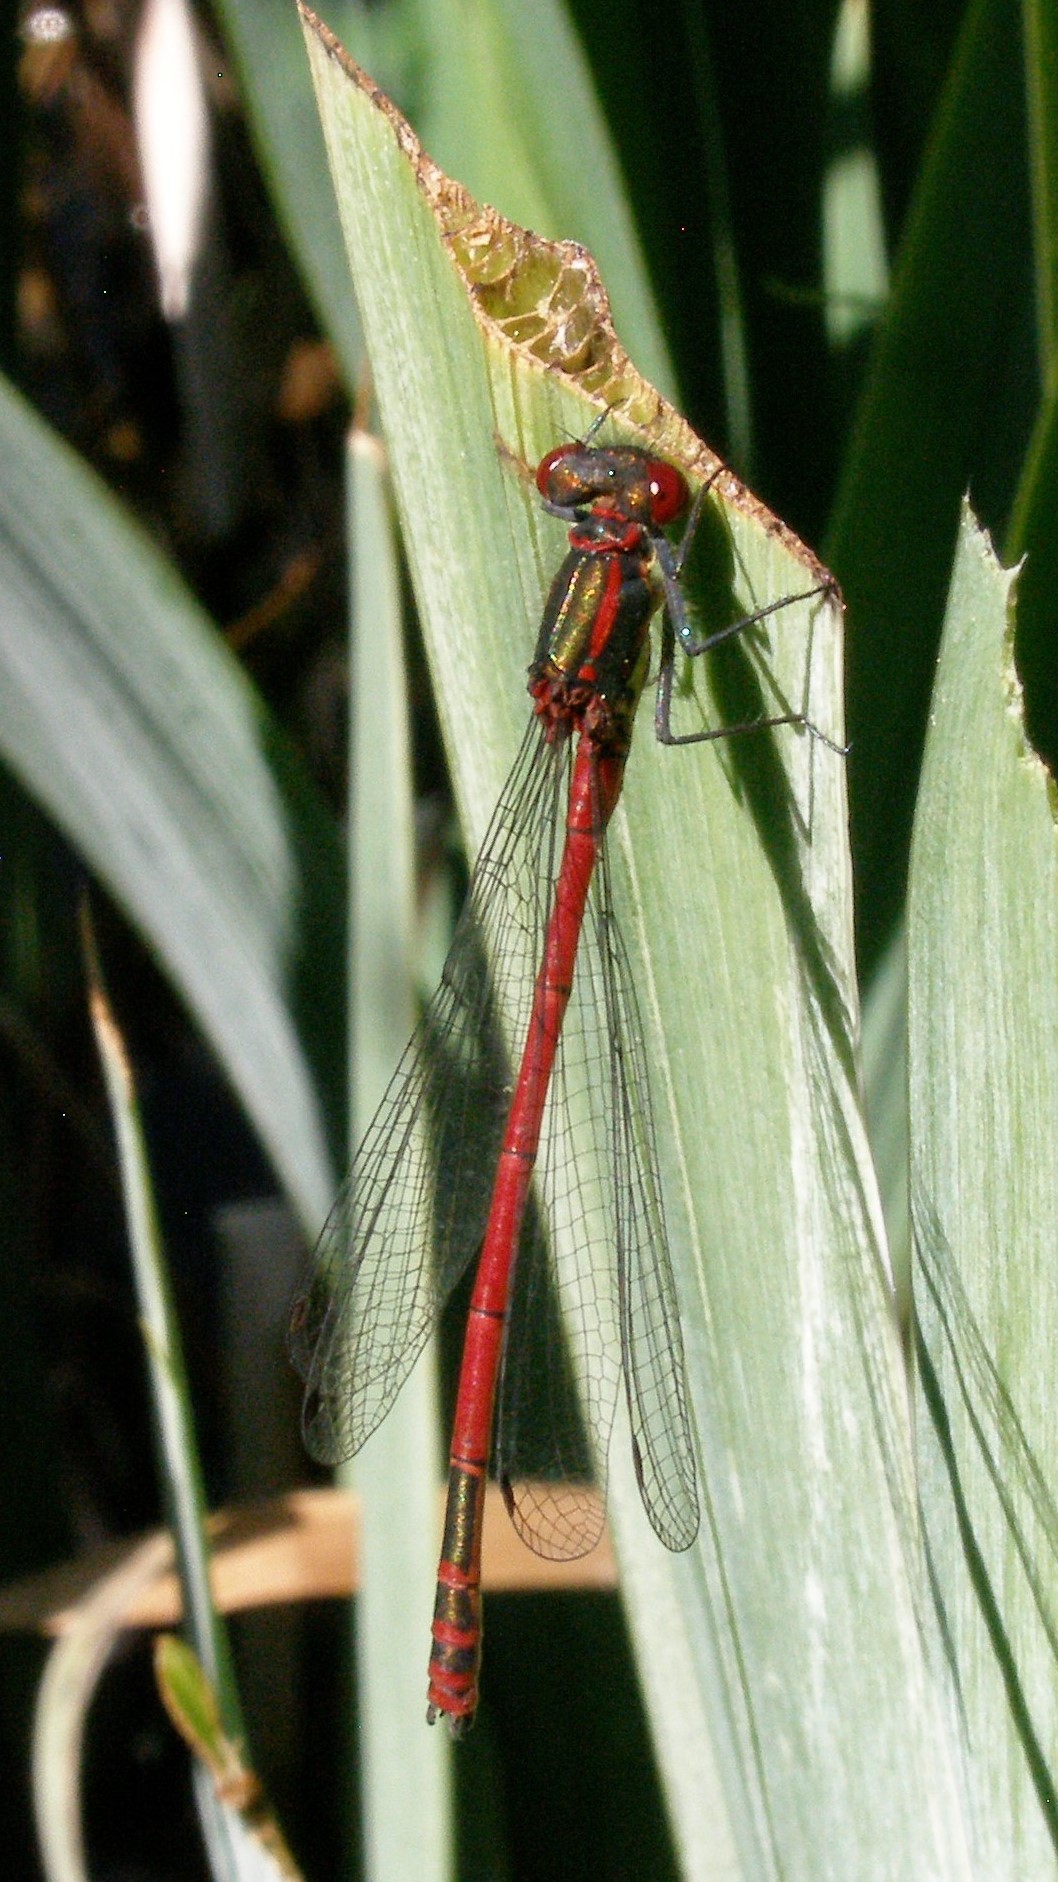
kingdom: Animalia
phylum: Arthropoda
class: Insecta
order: Odonata
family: Coenagrionidae
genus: Pyrrhosoma
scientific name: Pyrrhosoma nymphula
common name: Large red damsel
